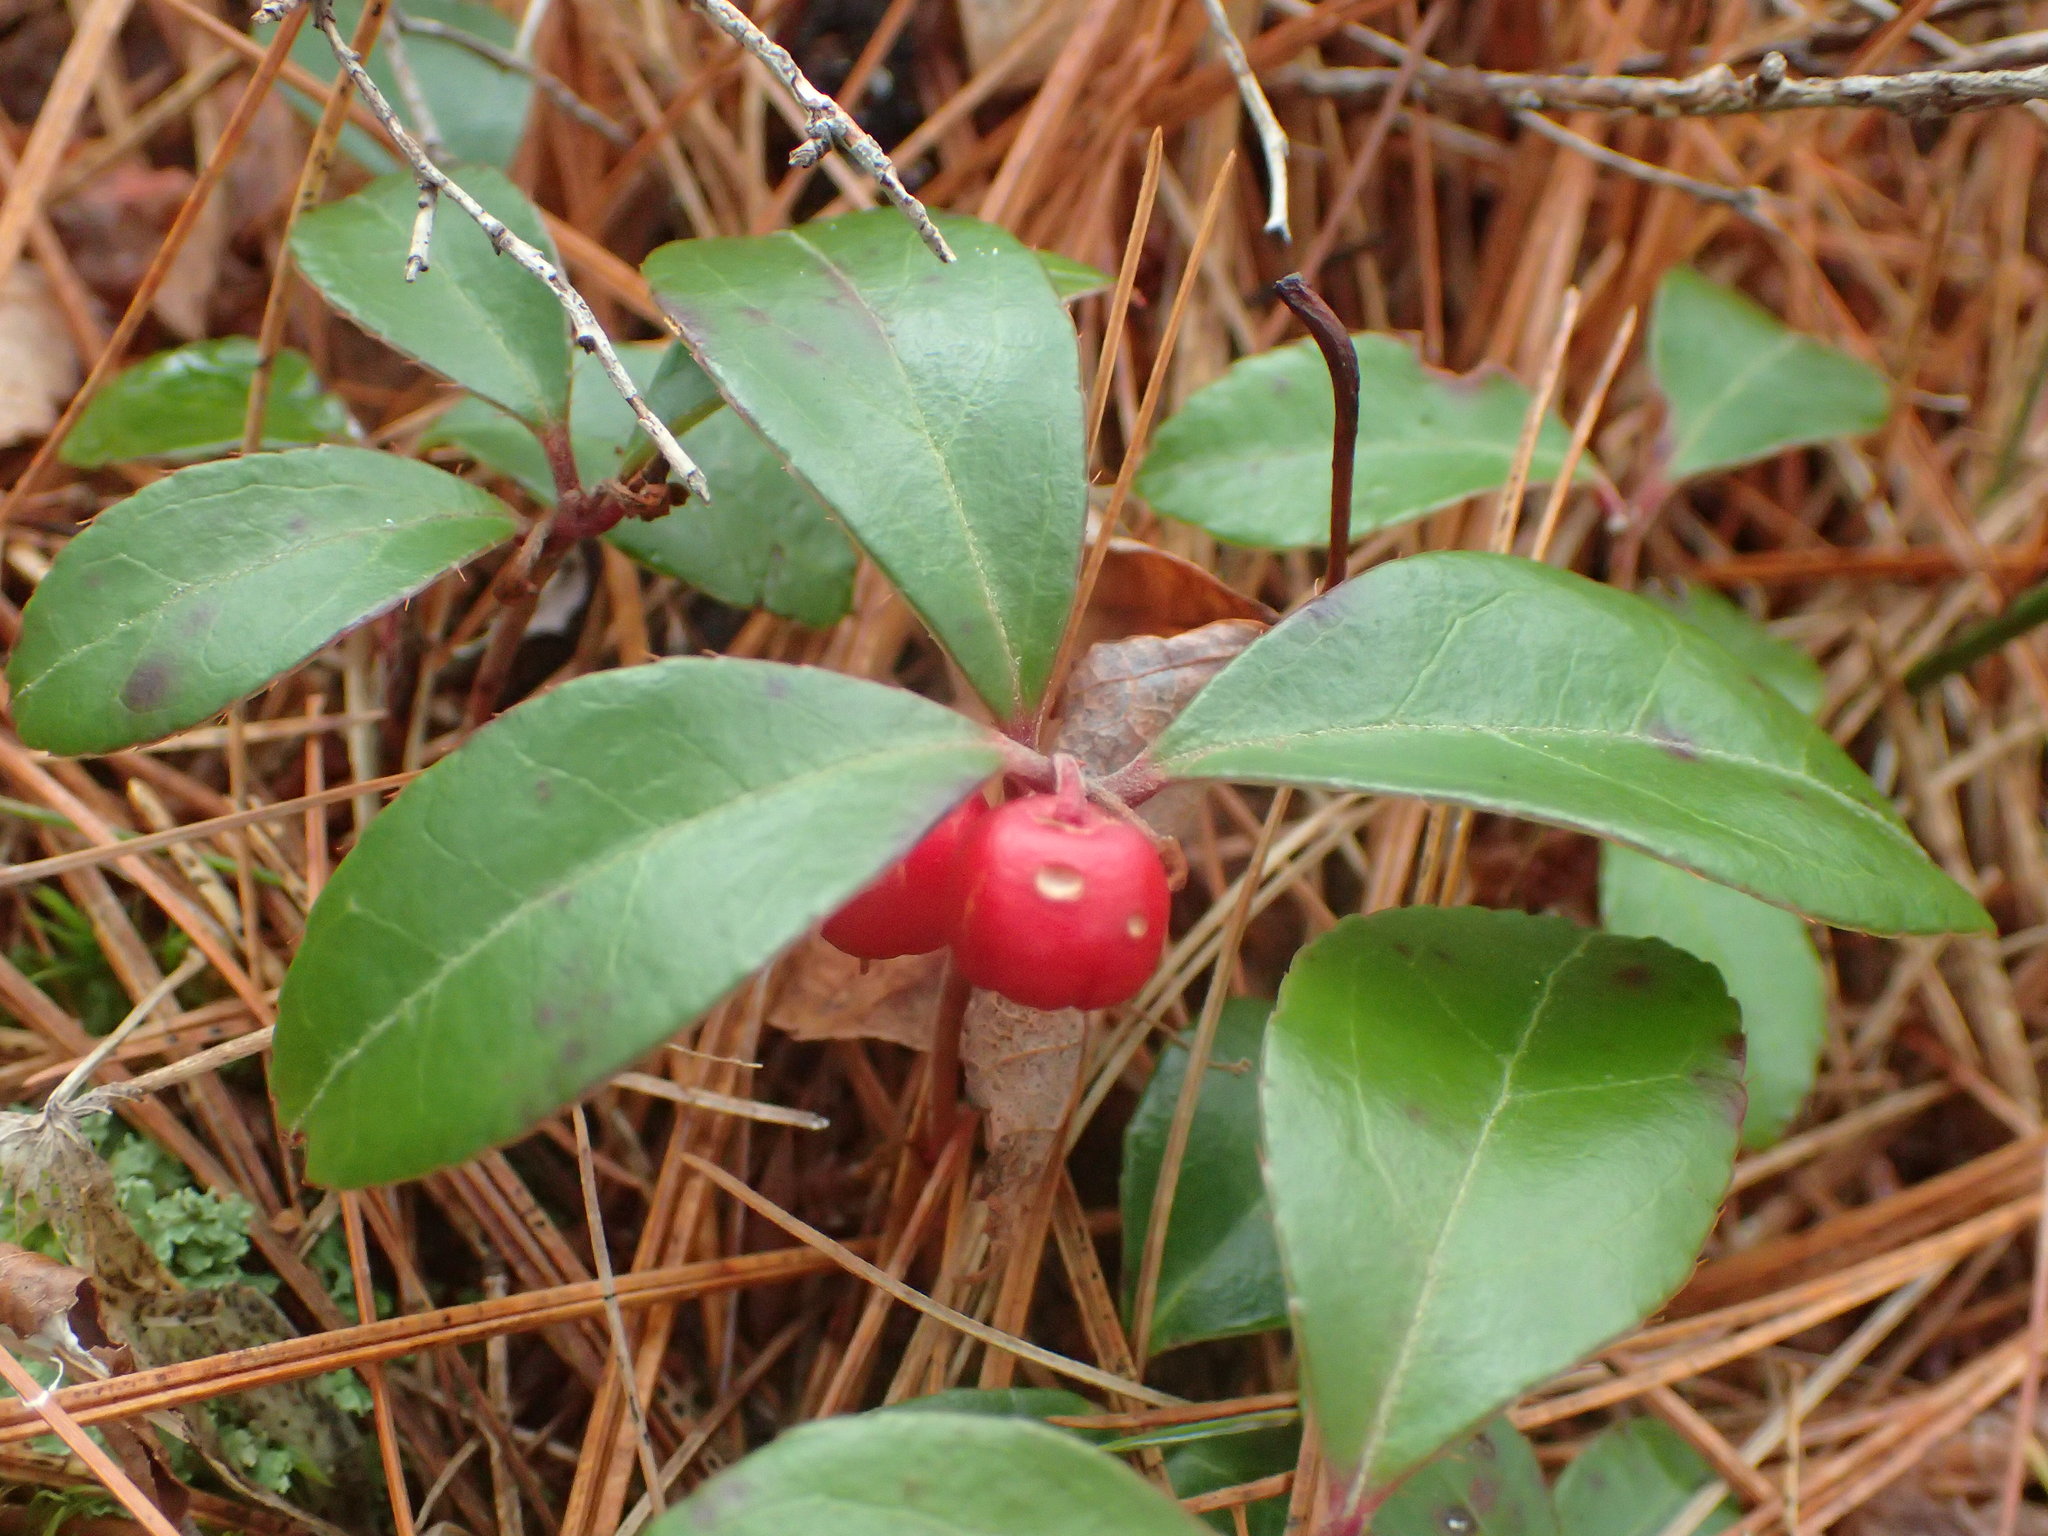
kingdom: Plantae
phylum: Tracheophyta
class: Magnoliopsida
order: Ericales
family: Ericaceae
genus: Gaultheria
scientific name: Gaultheria procumbens
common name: Checkerberry
